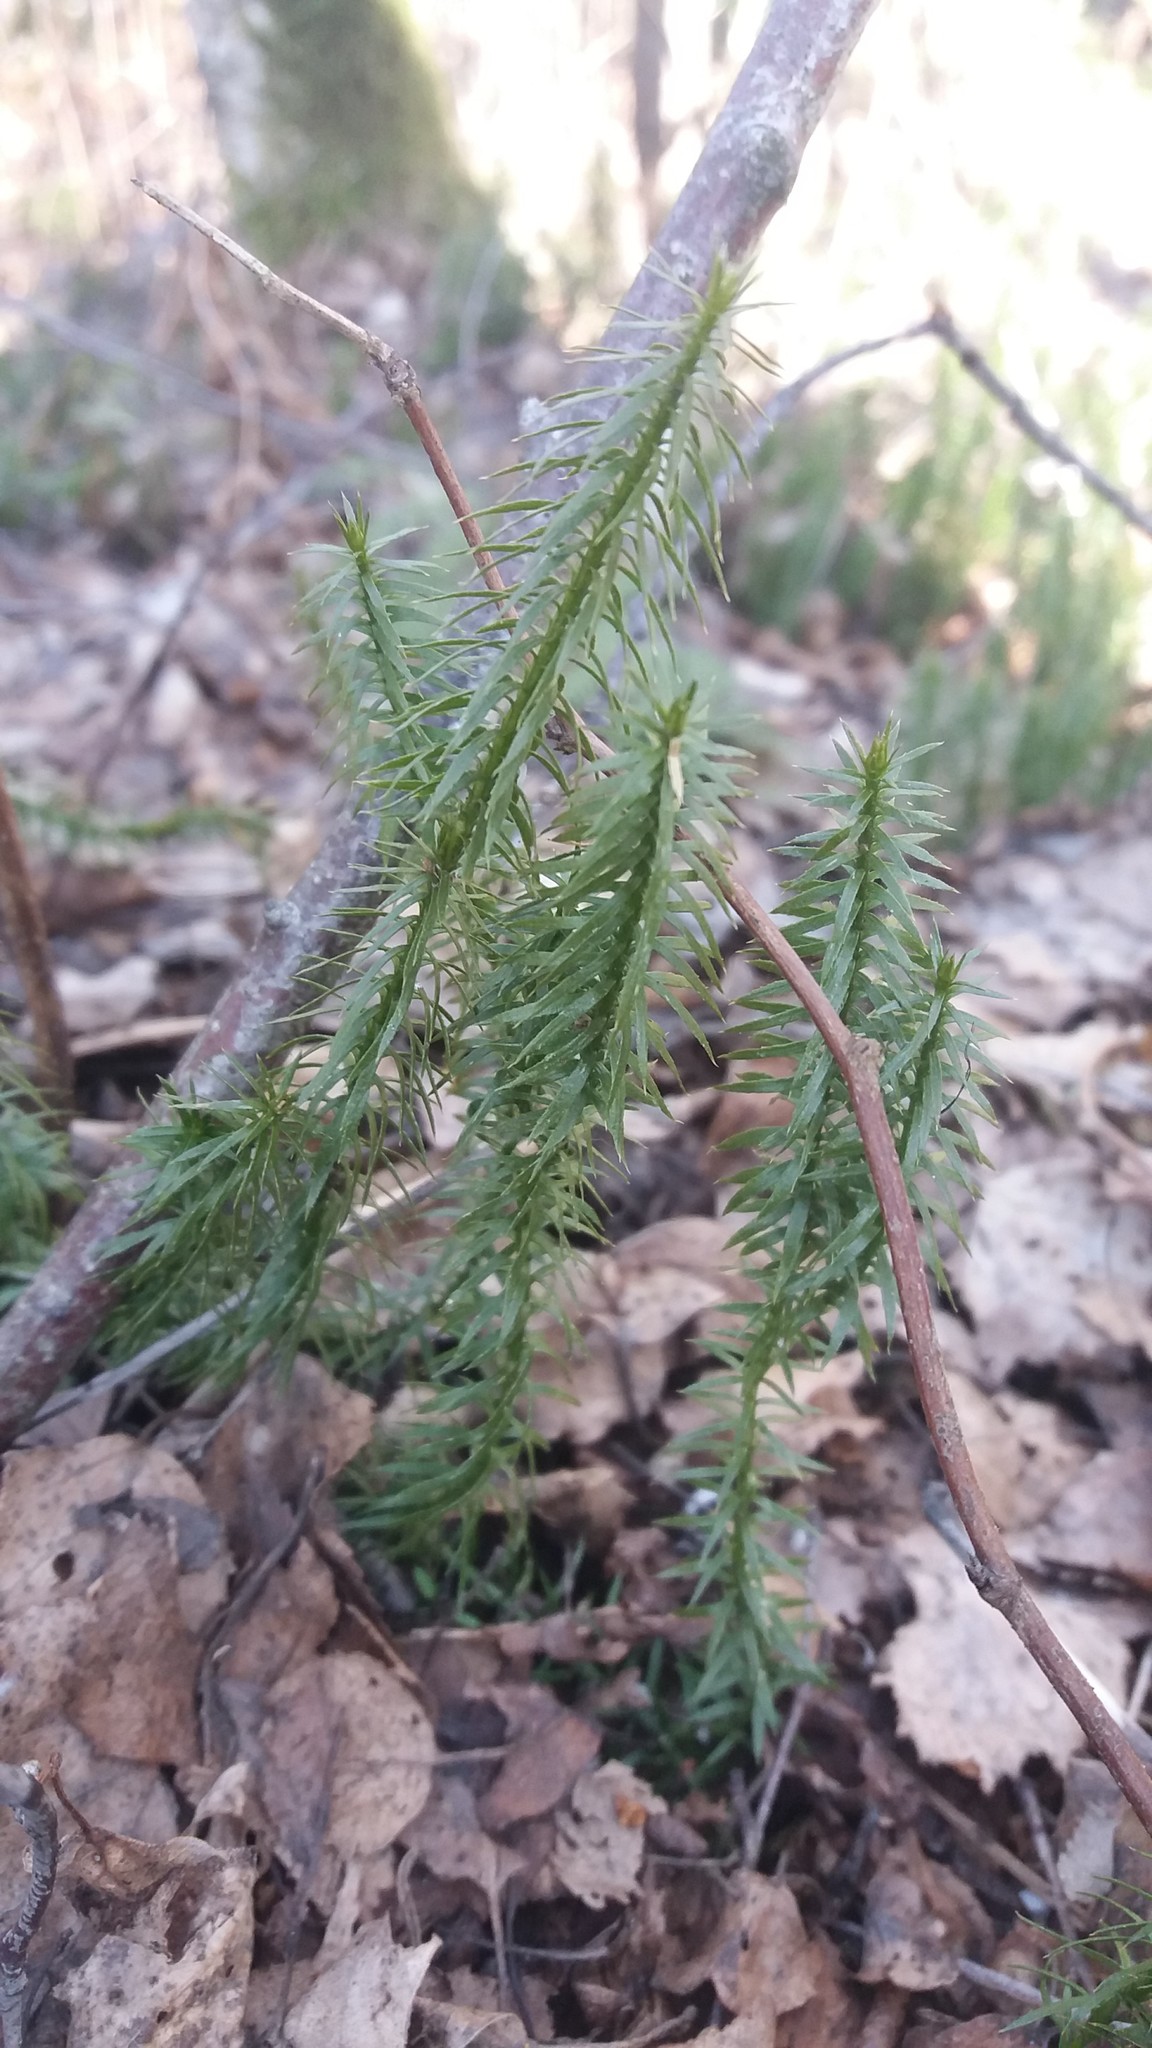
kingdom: Plantae
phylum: Tracheophyta
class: Lycopodiopsida
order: Lycopodiales
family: Lycopodiaceae
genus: Spinulum
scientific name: Spinulum annotinum
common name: Interrupted club-moss
